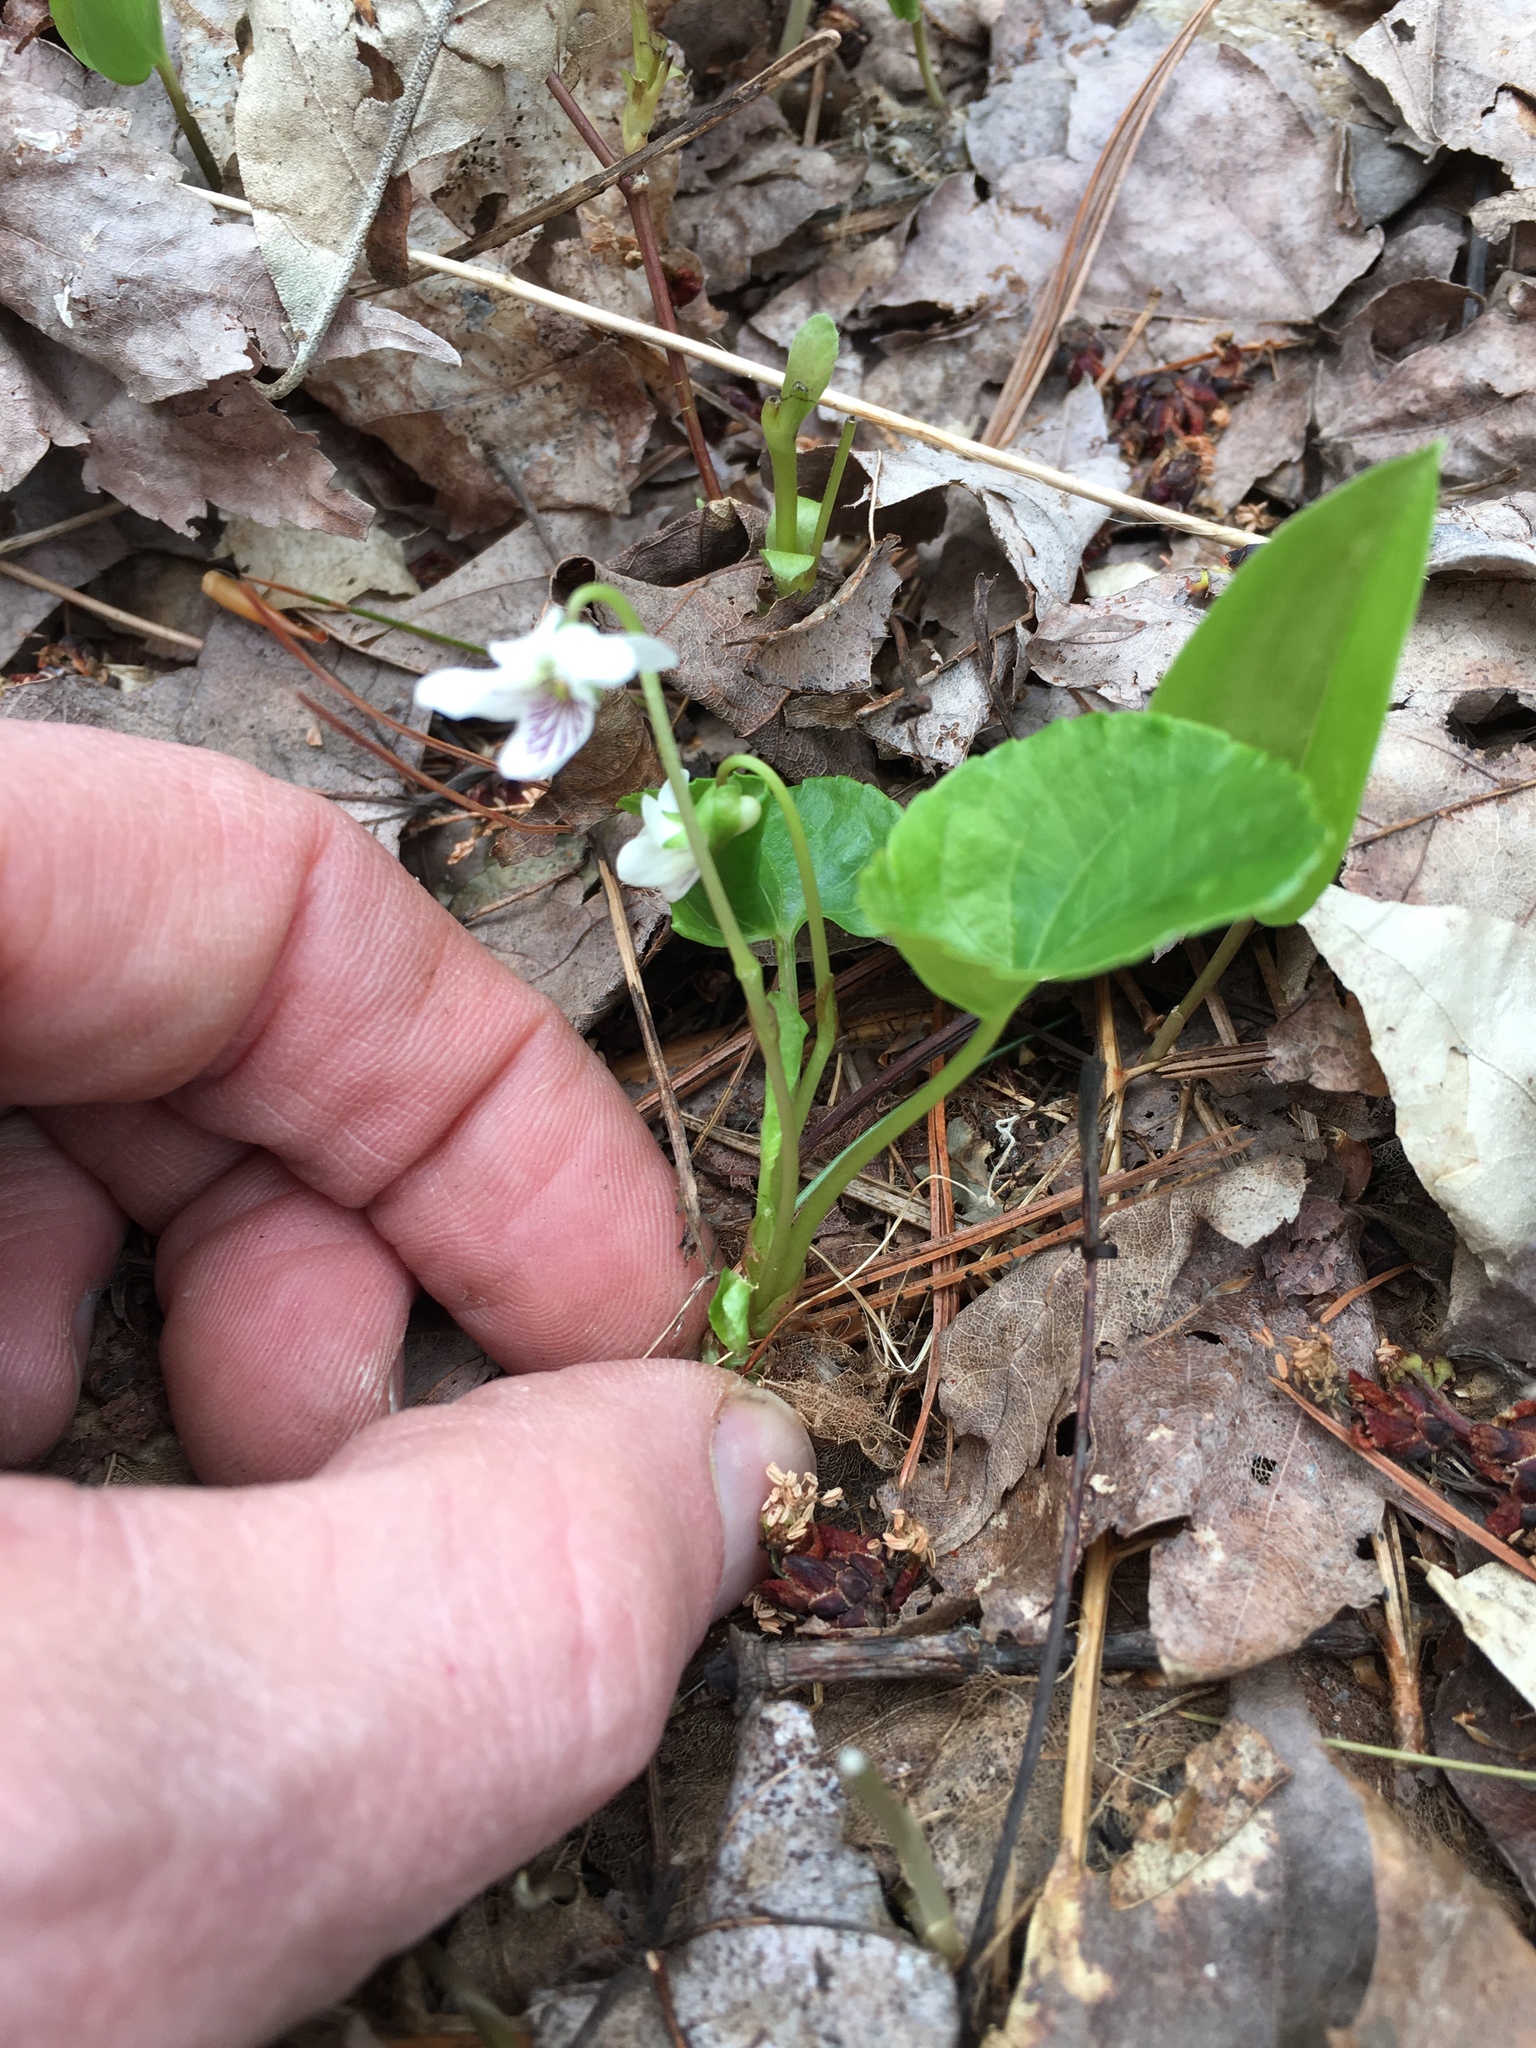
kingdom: Plantae
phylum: Tracheophyta
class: Magnoliopsida
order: Malpighiales
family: Violaceae
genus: Viola
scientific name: Viola minuscula
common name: Northern white violet
